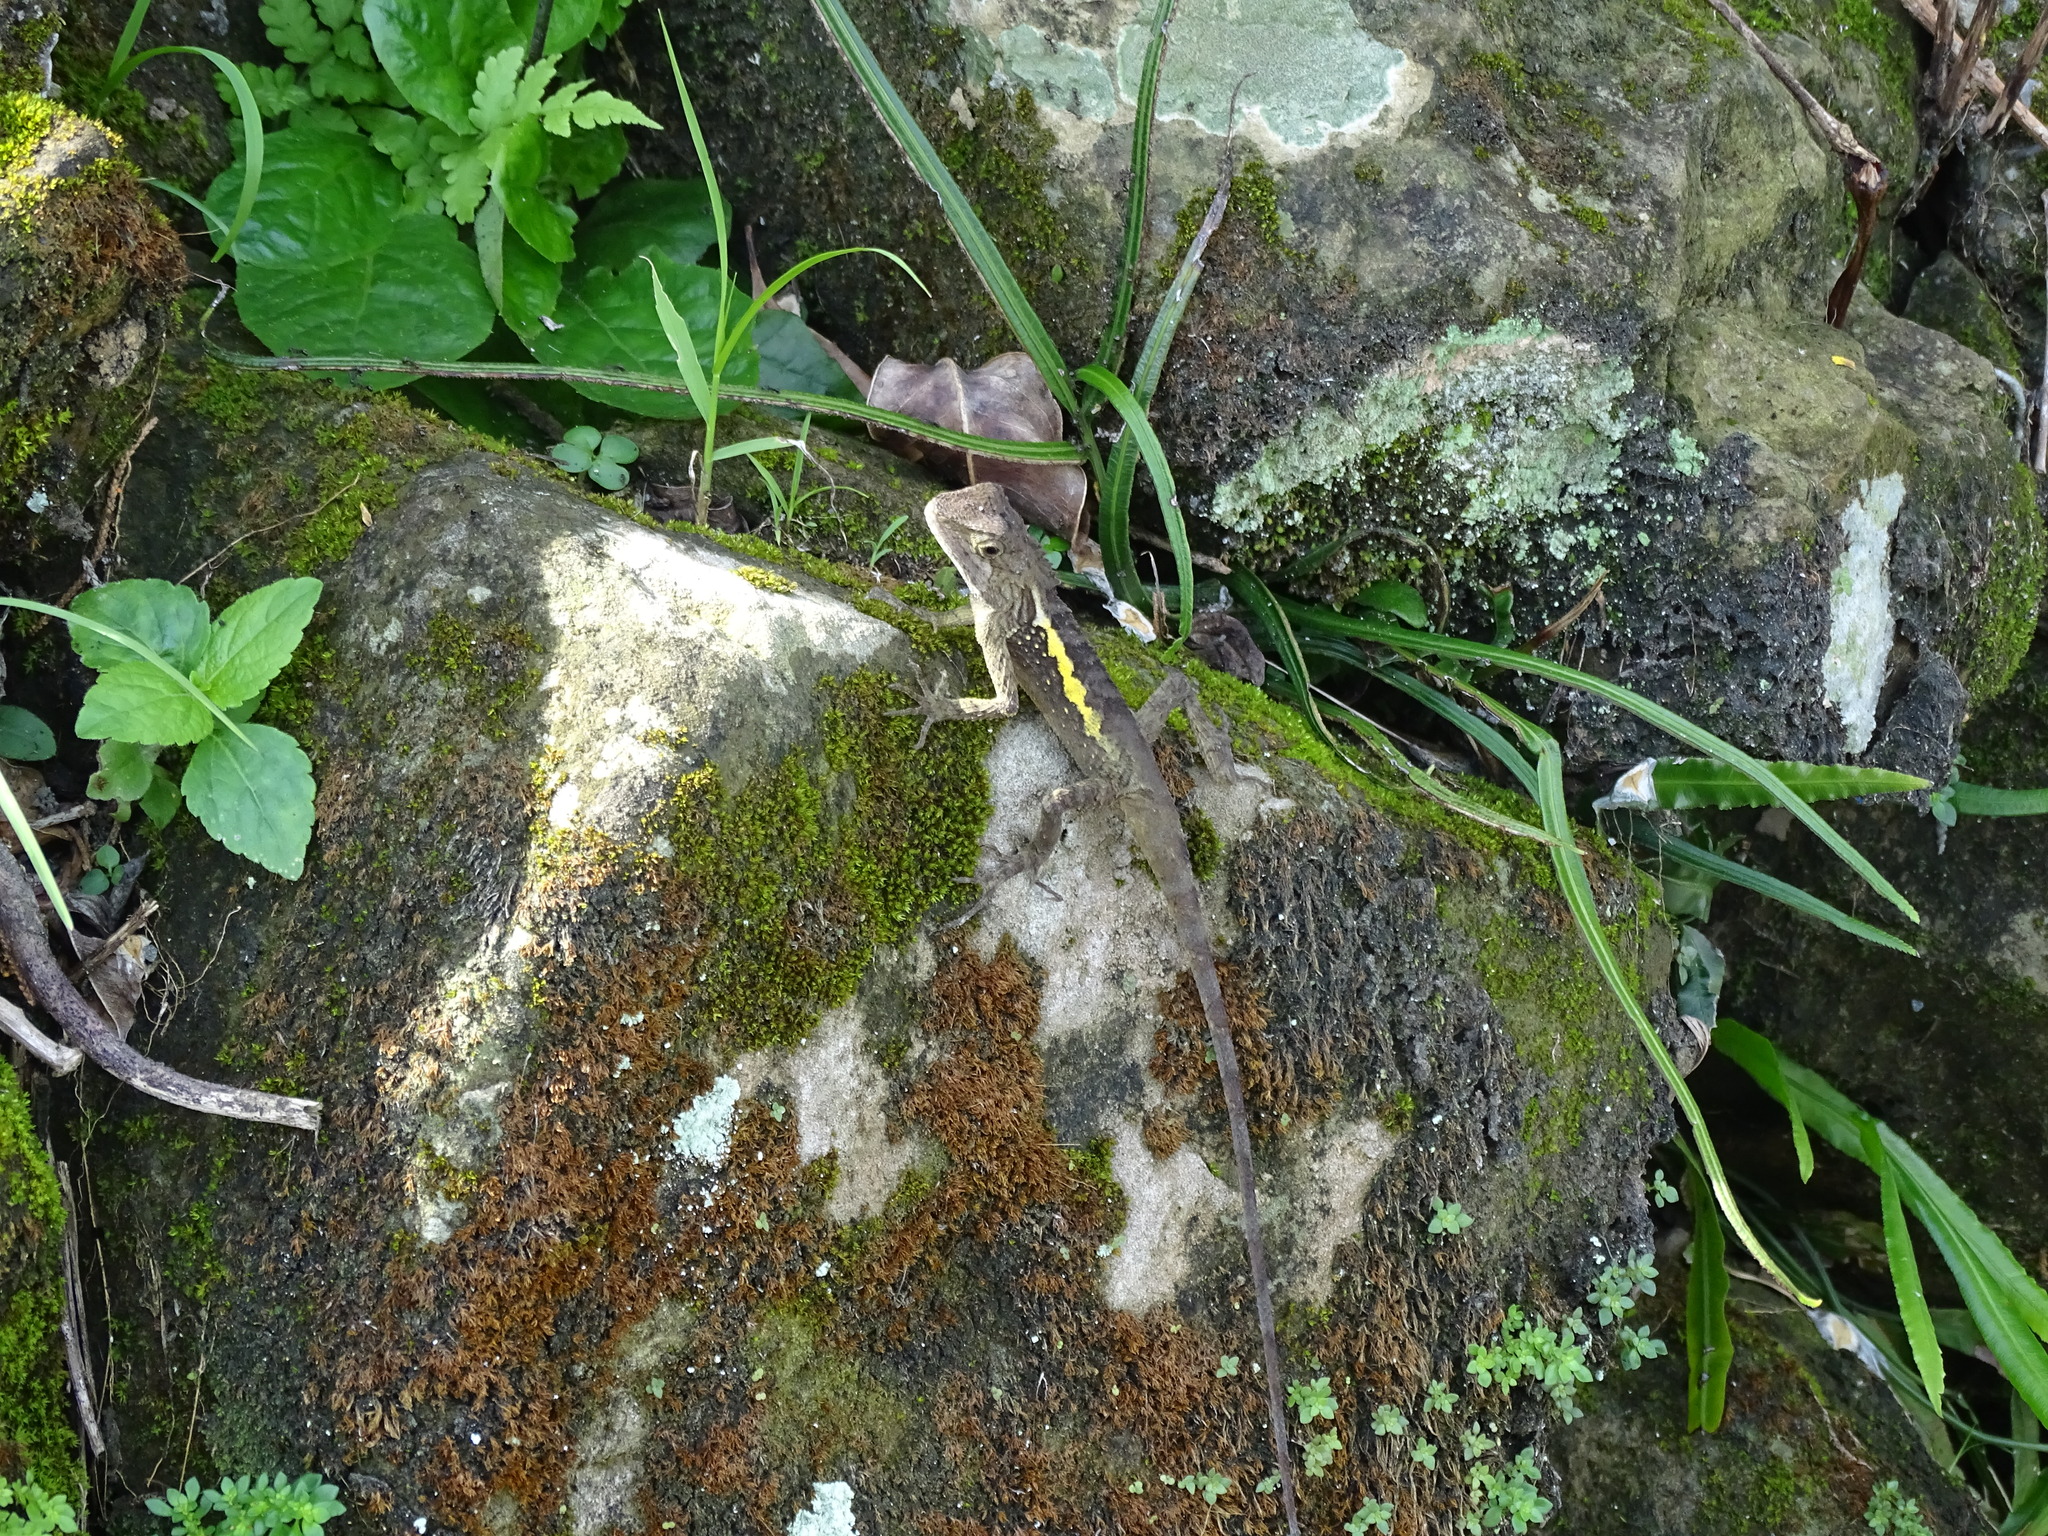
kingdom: Animalia
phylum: Chordata
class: Squamata
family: Agamidae
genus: Diploderma
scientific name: Diploderma swinhonis
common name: Taiwan japalure
